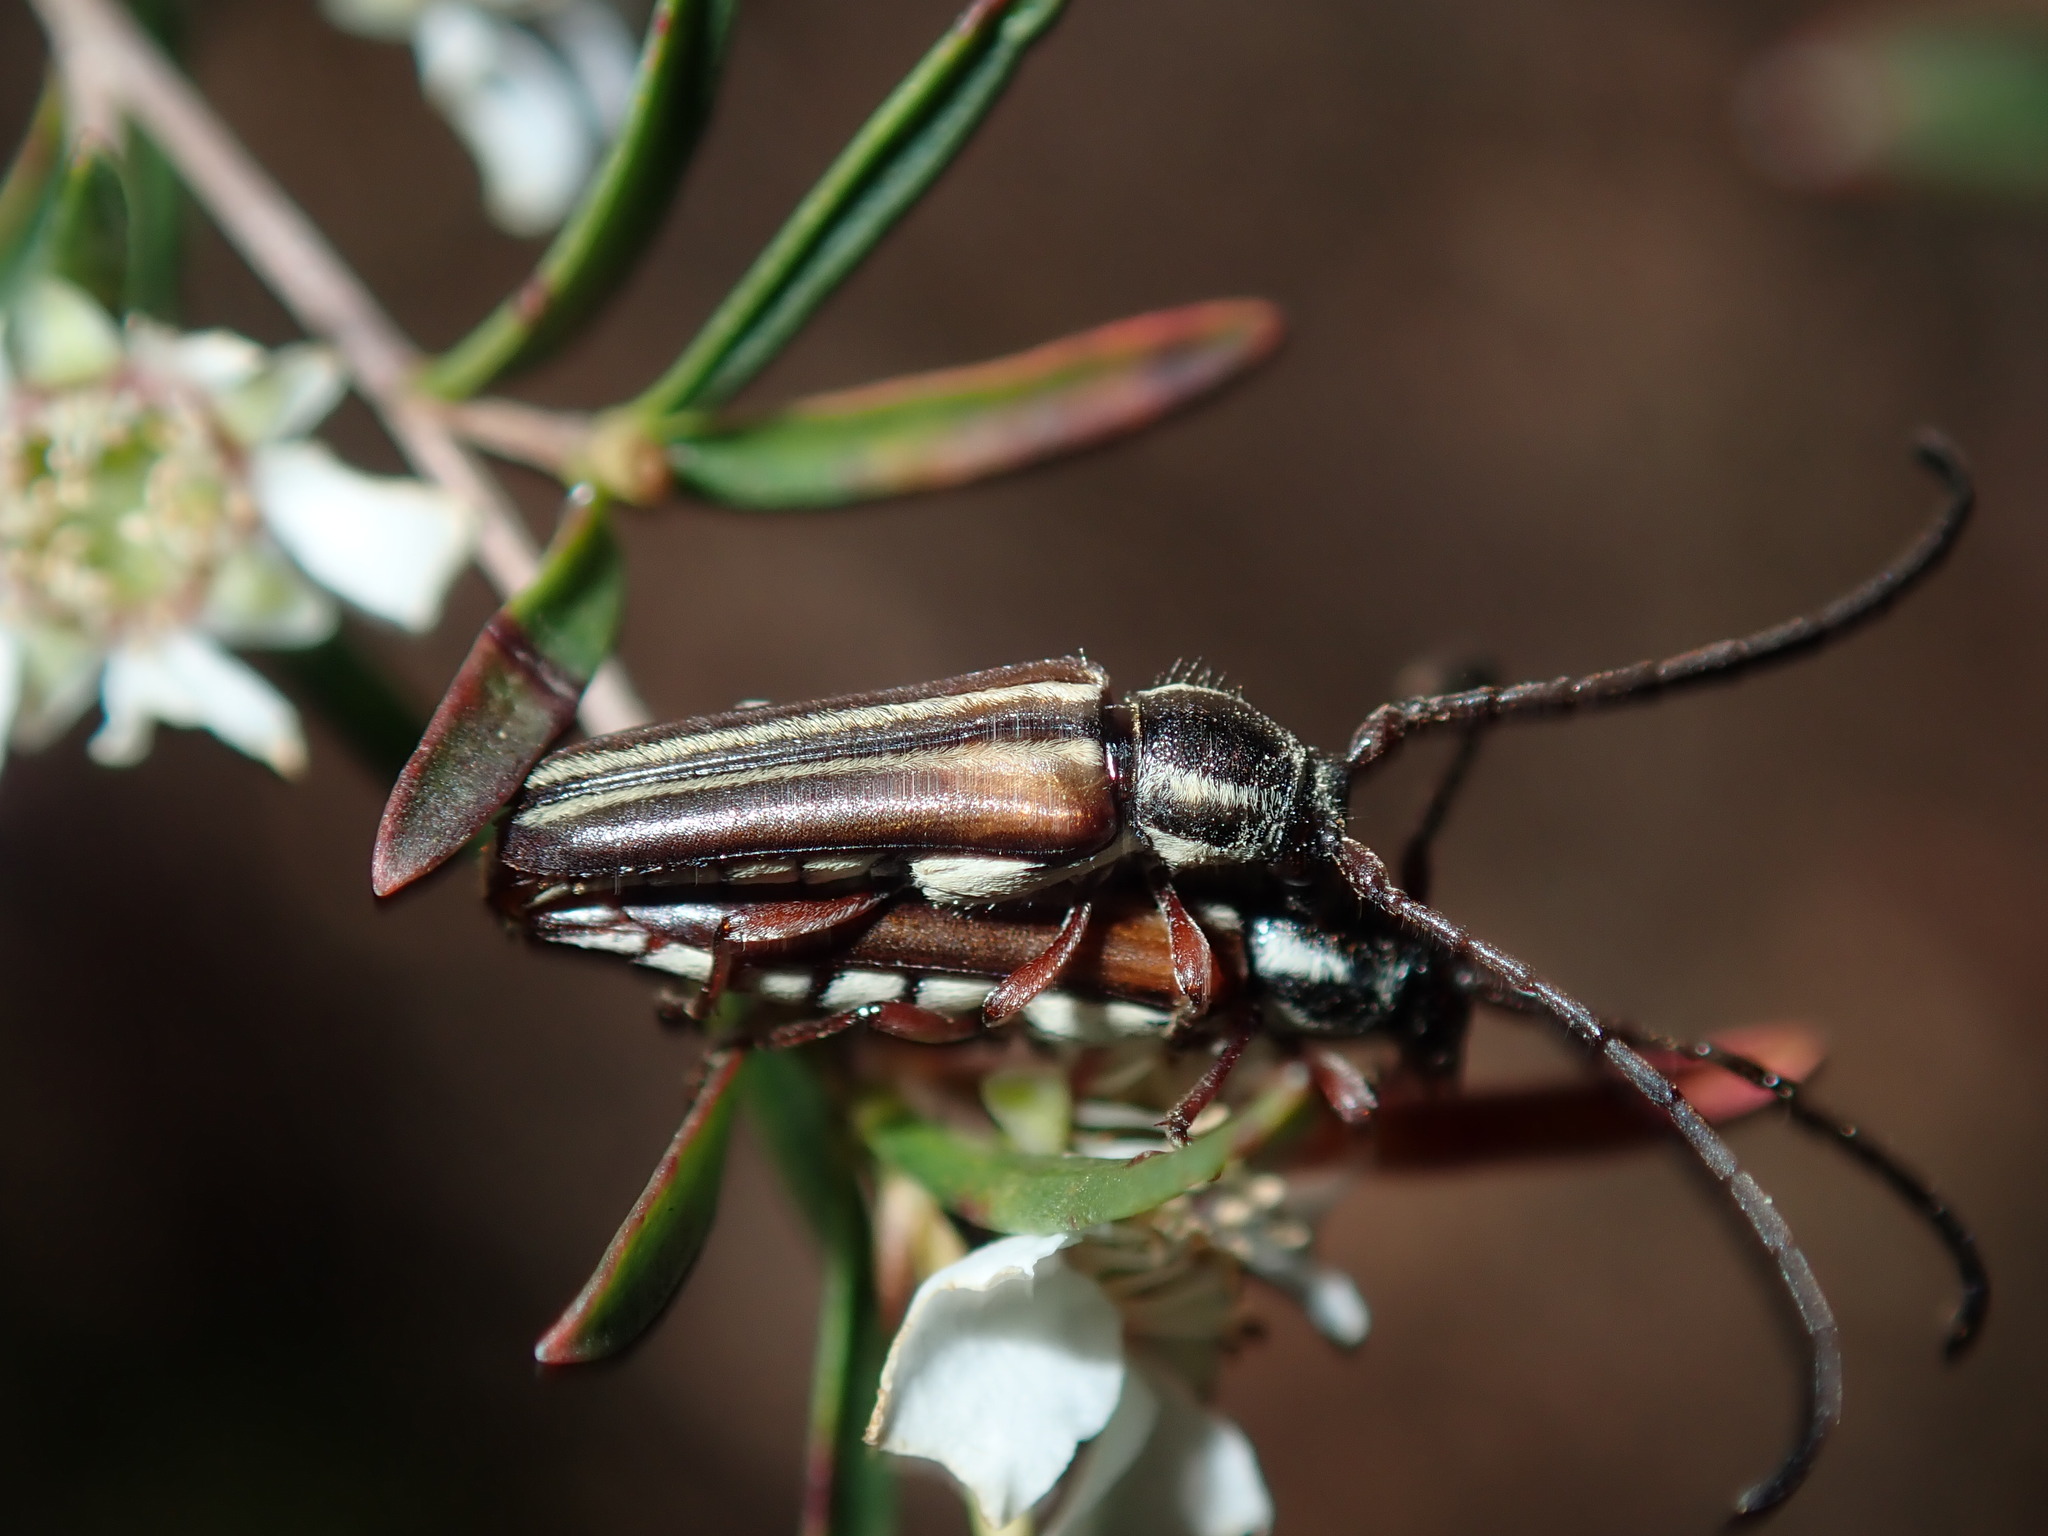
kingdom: Animalia
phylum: Arthropoda
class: Insecta
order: Coleoptera
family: Cerambycidae
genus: Trichomesia
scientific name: Trichomesia newmani
